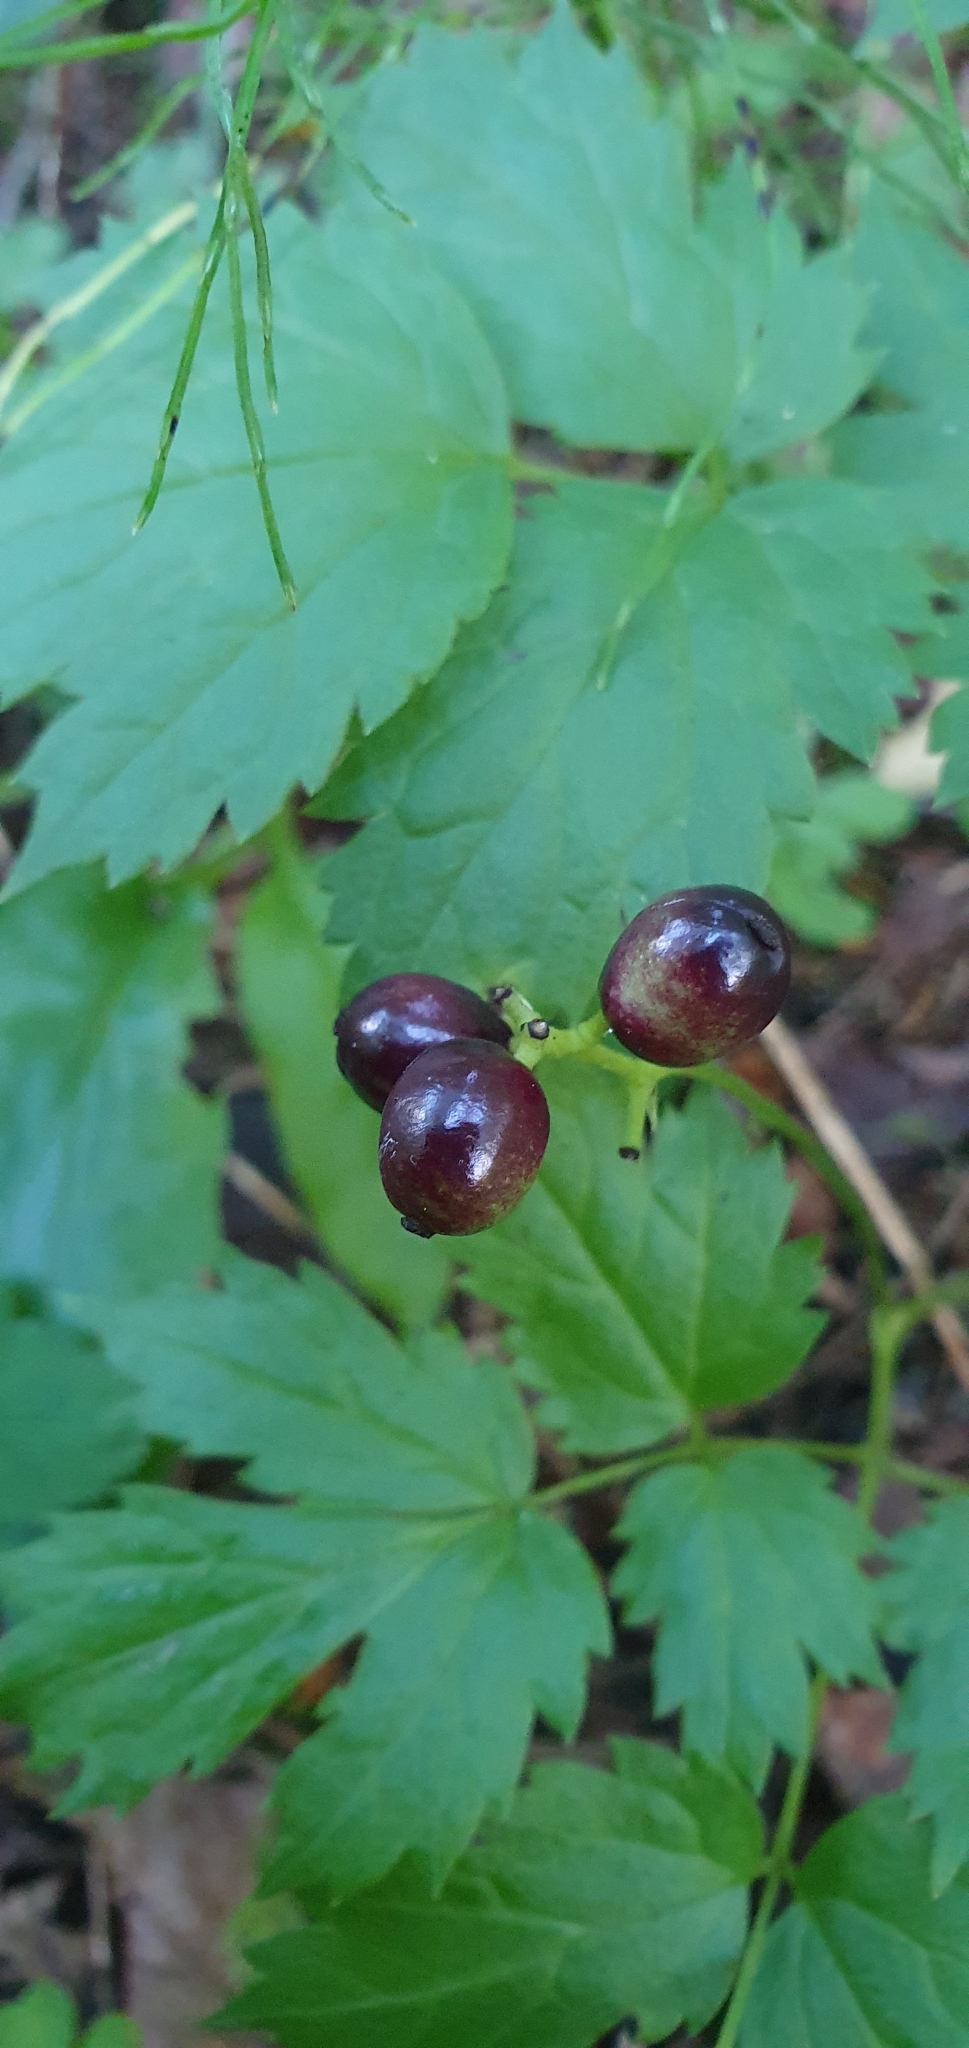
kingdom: Plantae
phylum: Tracheophyta
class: Magnoliopsida
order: Ranunculales
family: Ranunculaceae
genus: Actaea
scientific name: Actaea spicata
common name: Baneberry
